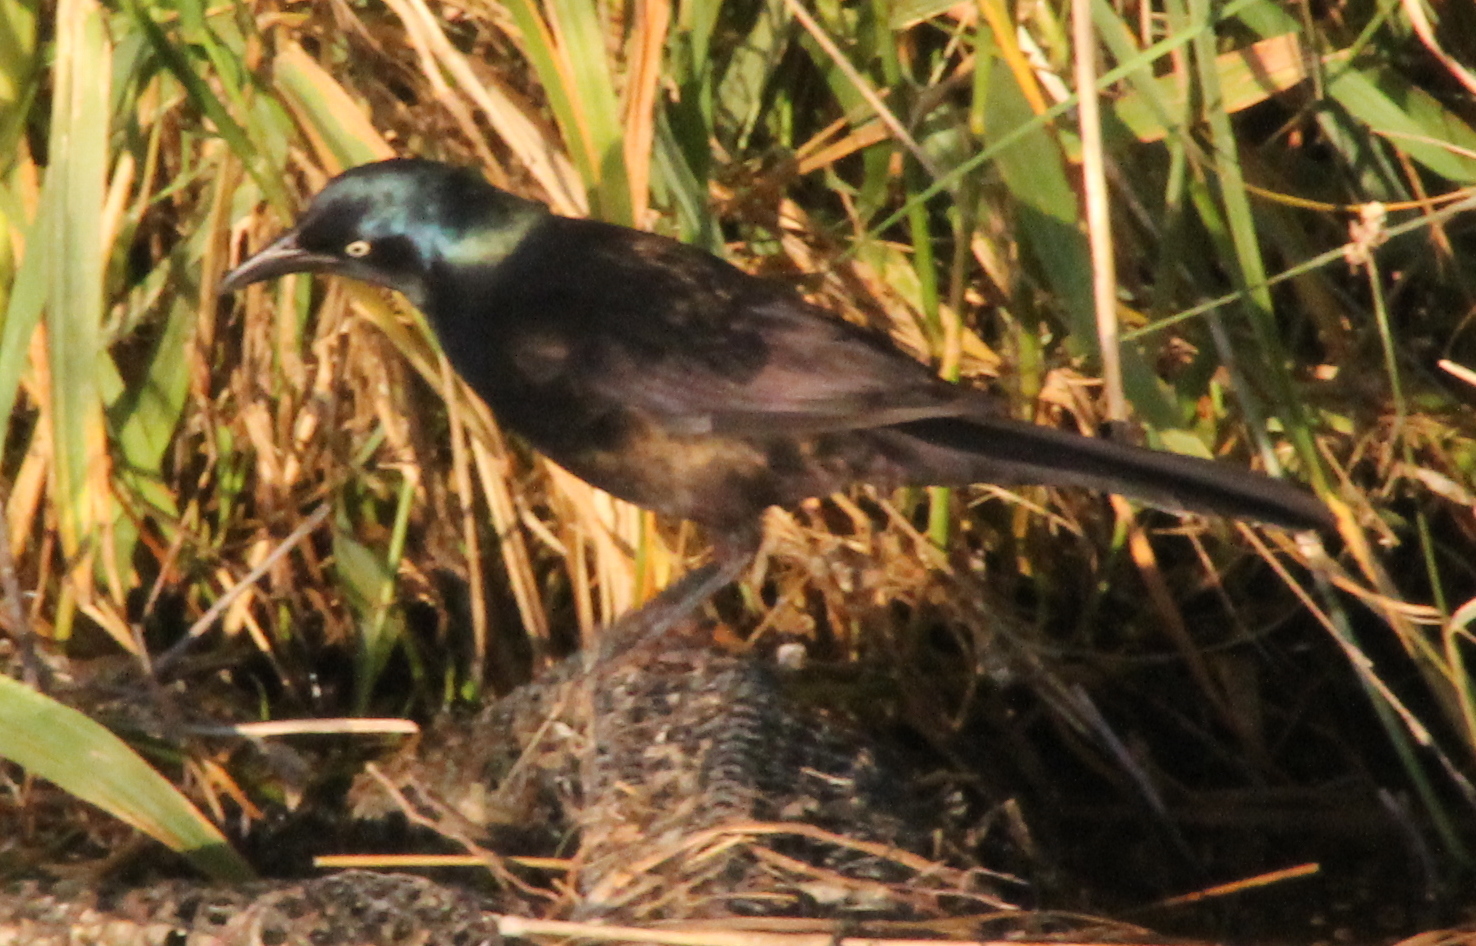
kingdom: Animalia
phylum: Chordata
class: Aves
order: Passeriformes
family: Icteridae
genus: Quiscalus
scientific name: Quiscalus quiscula
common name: Common grackle
